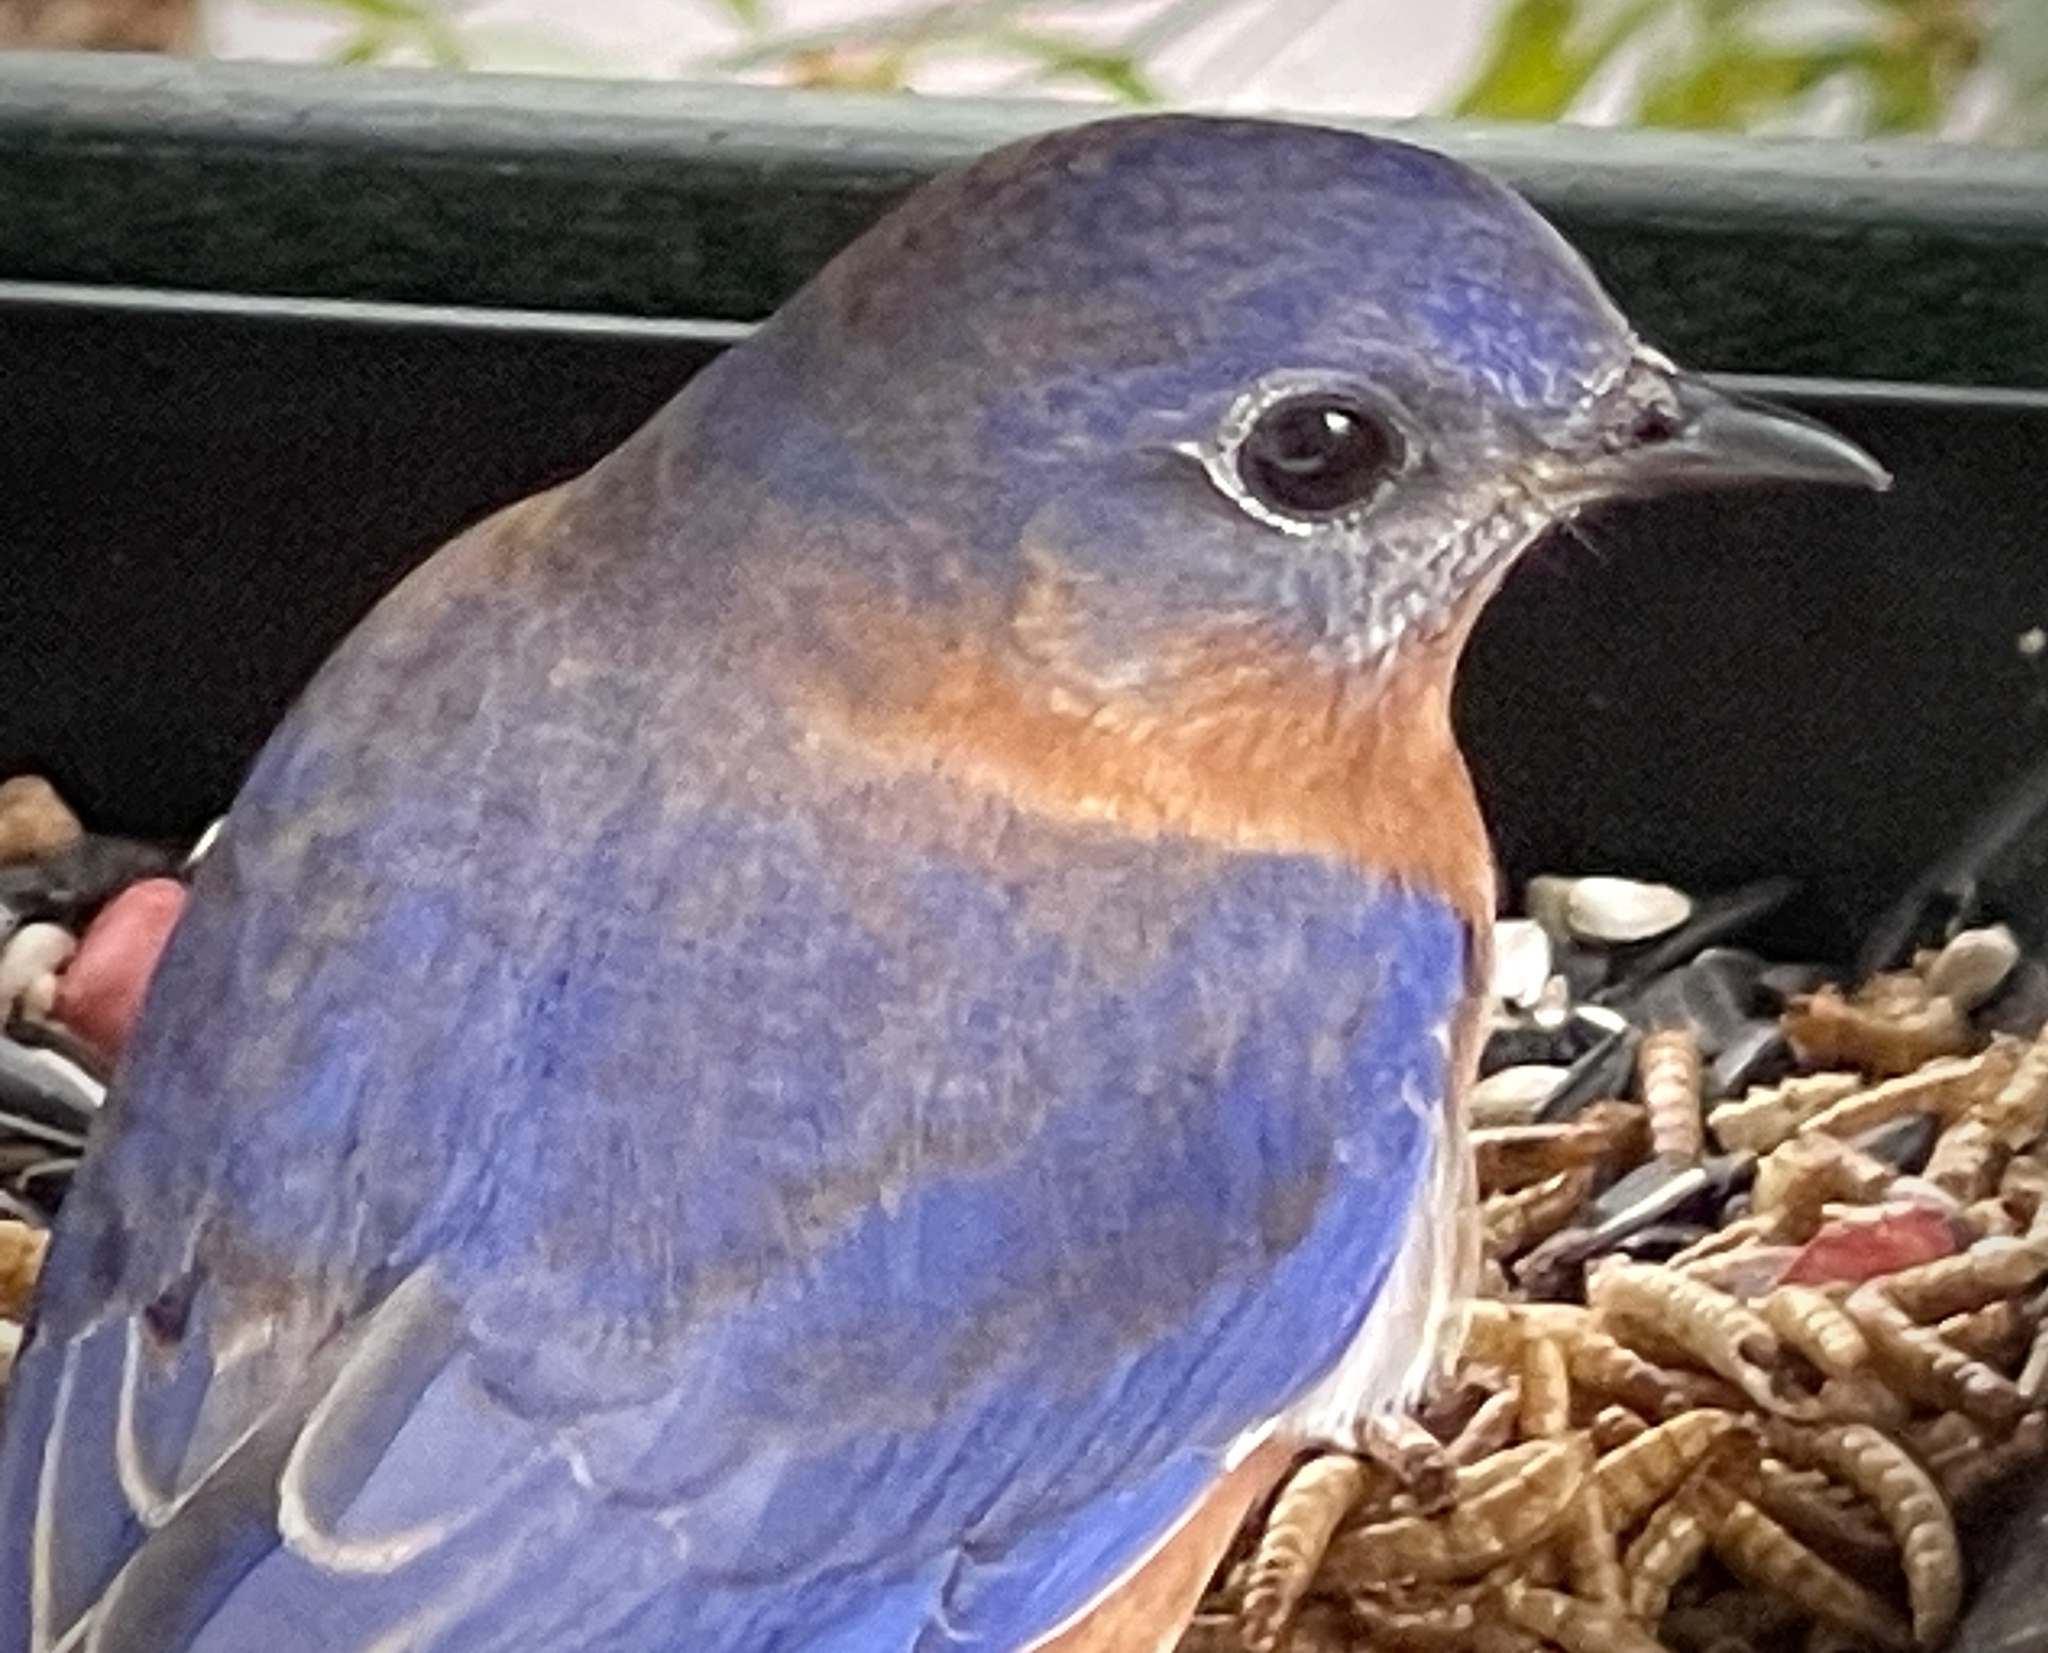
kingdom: Animalia
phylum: Chordata
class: Aves
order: Passeriformes
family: Turdidae
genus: Sialia
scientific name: Sialia sialis
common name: Eastern bluebird
